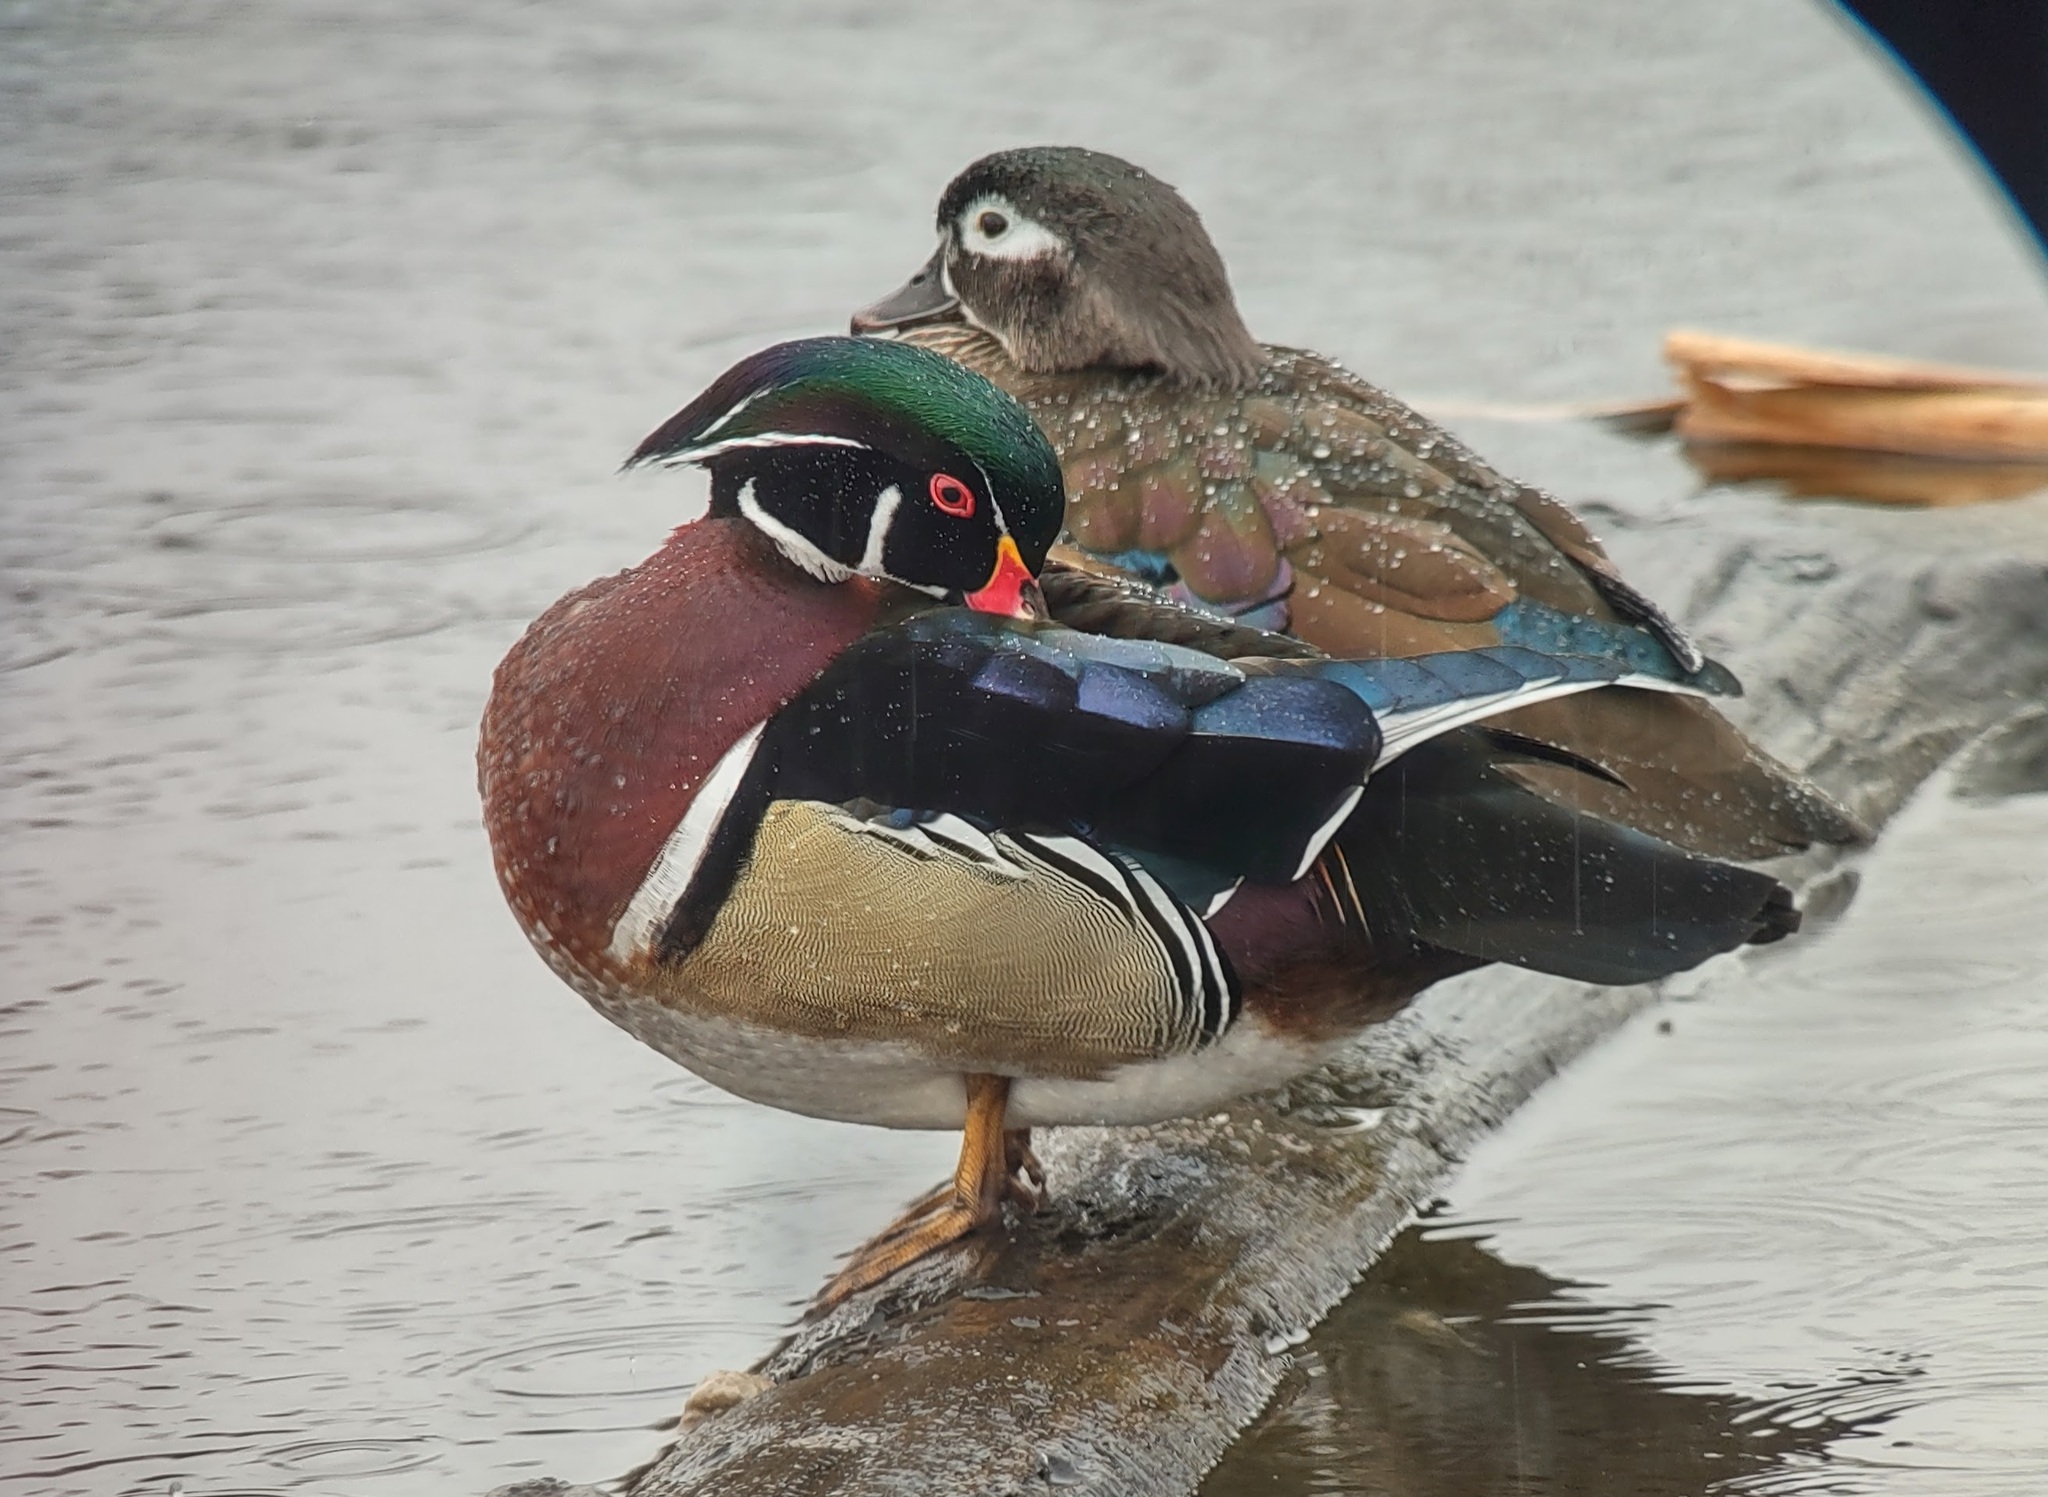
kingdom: Animalia
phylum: Chordata
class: Aves
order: Anseriformes
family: Anatidae
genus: Aix
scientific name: Aix sponsa
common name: Wood duck
